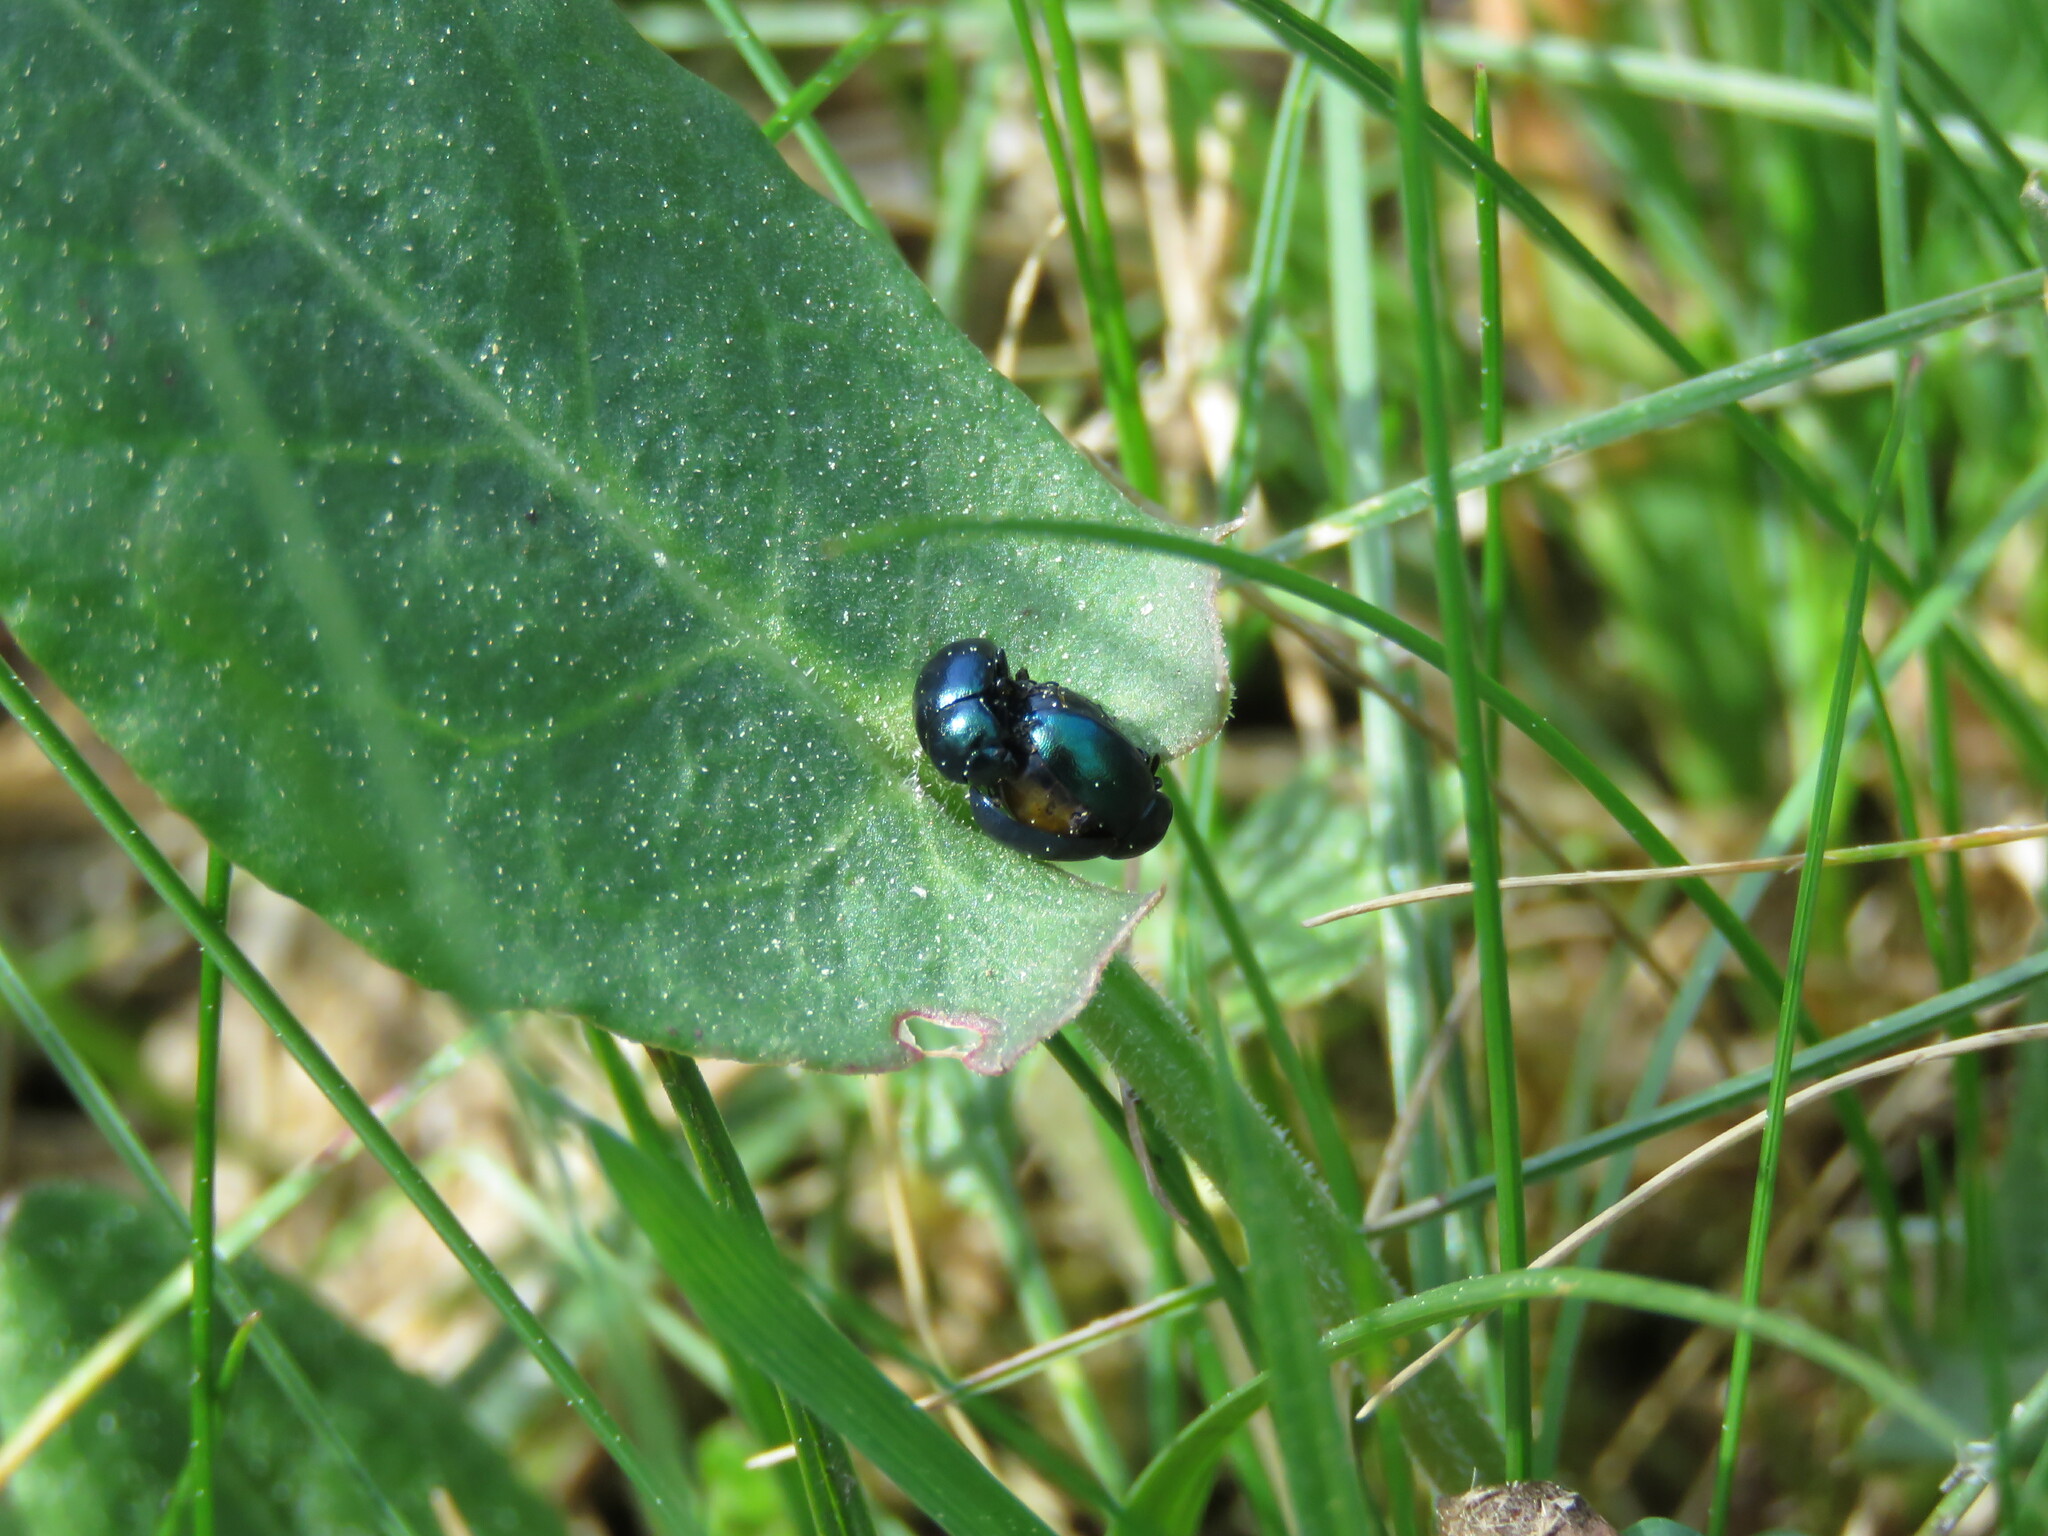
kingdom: Animalia
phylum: Arthropoda
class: Insecta
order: Coleoptera
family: Chrysomelidae
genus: Gastrophysa
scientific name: Gastrophysa janthina
